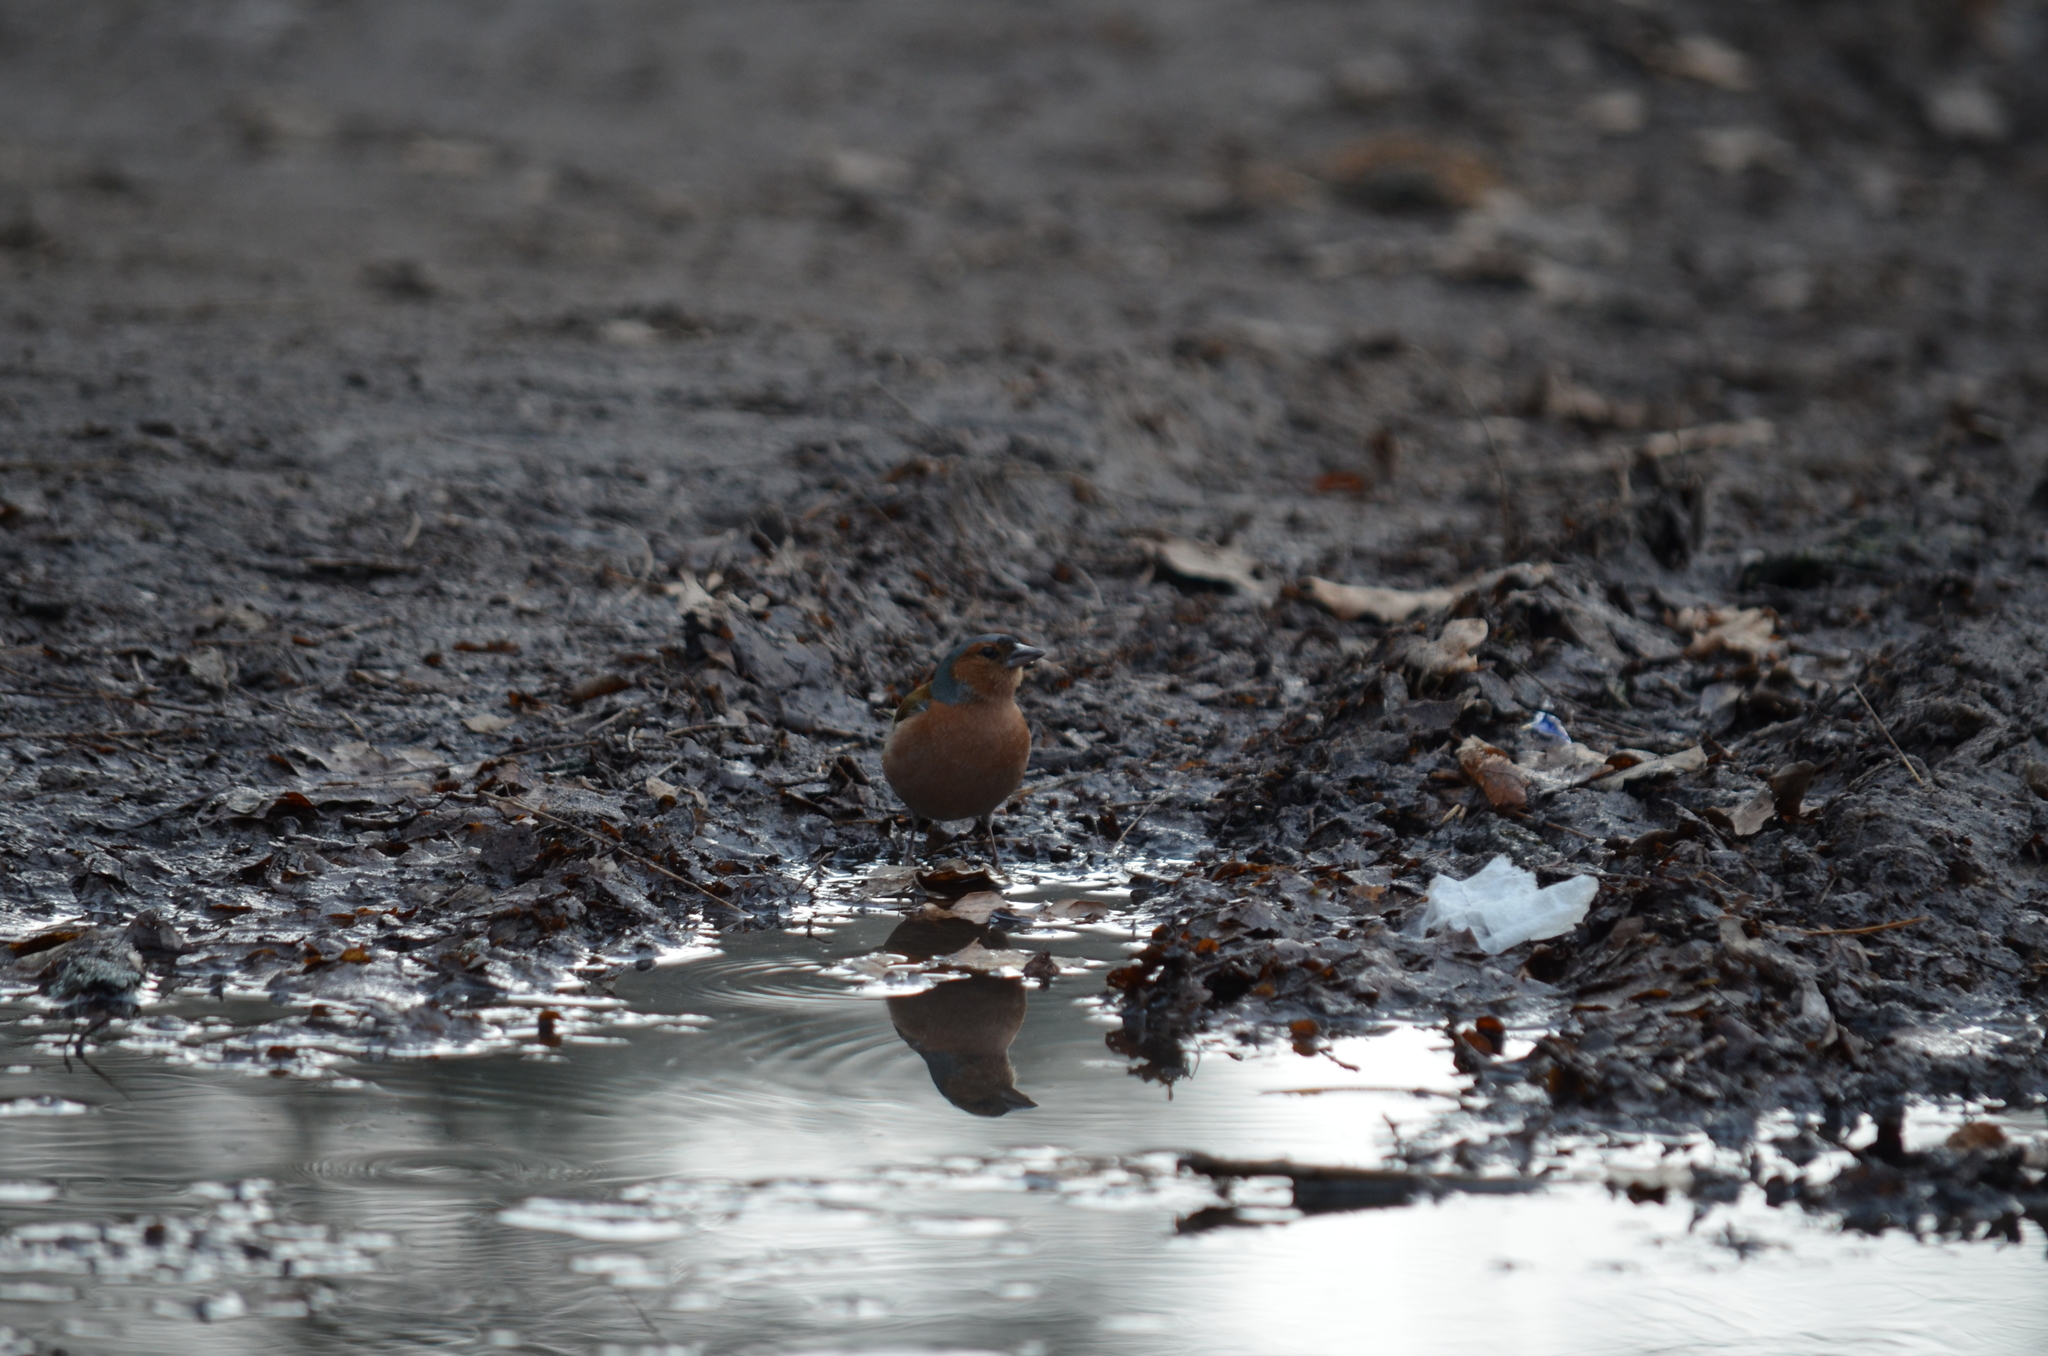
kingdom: Animalia
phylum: Chordata
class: Aves
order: Passeriformes
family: Fringillidae
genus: Fringilla
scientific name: Fringilla coelebs
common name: Common chaffinch
